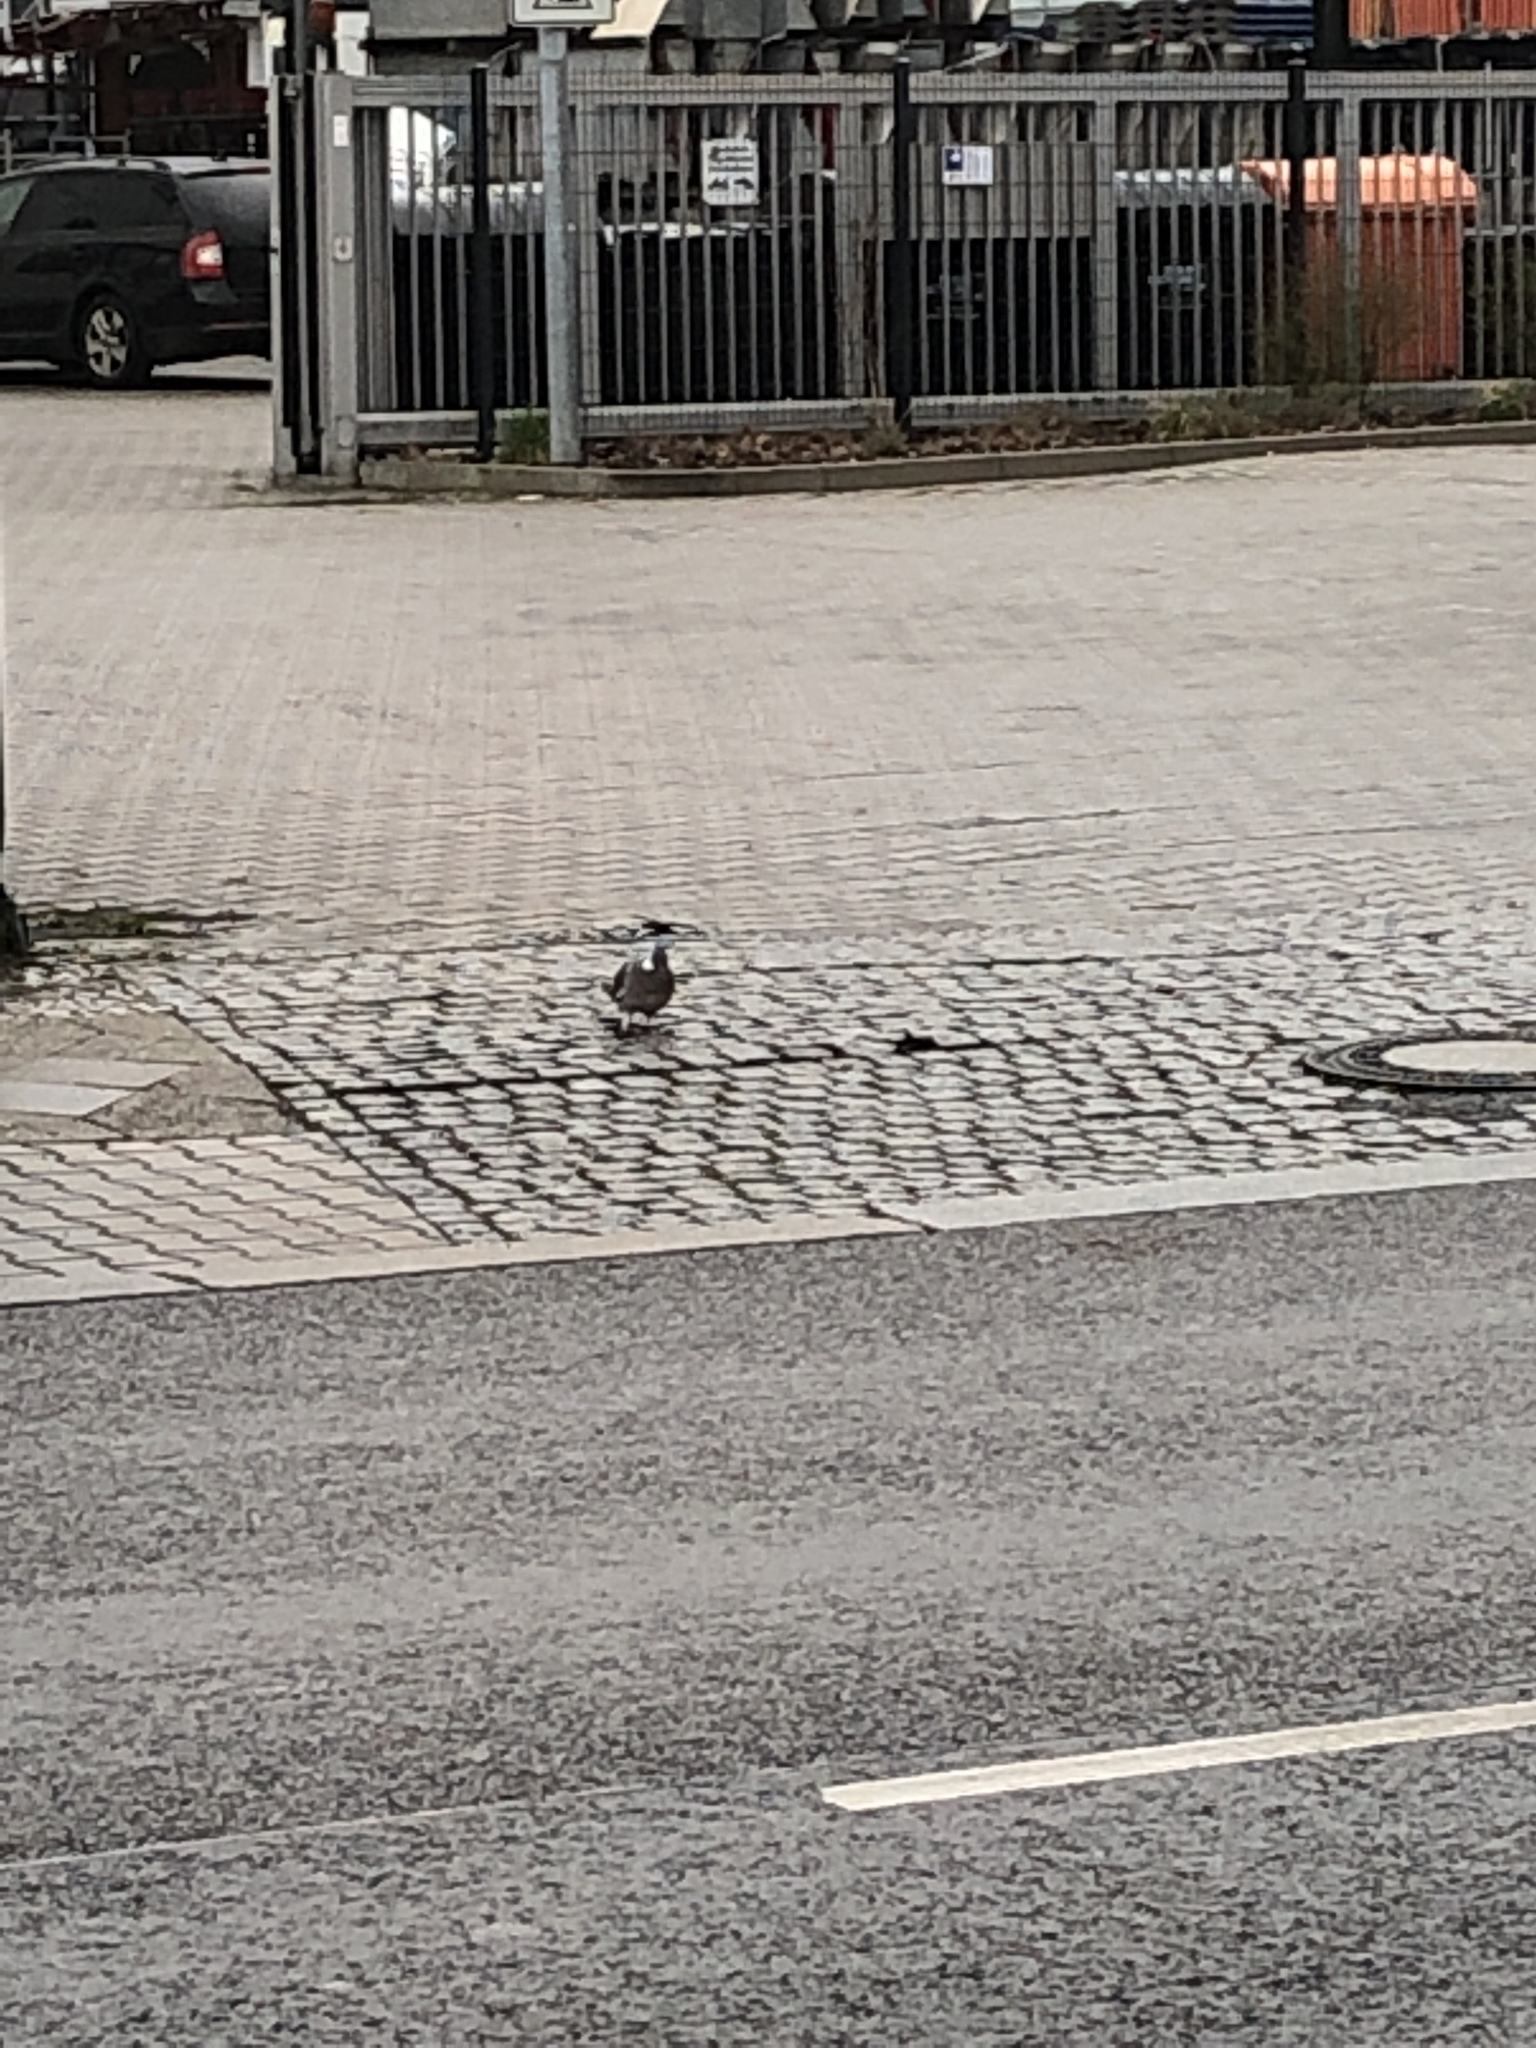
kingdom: Animalia
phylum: Chordata
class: Aves
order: Columbiformes
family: Columbidae
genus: Columba
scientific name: Columba palumbus
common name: Common wood pigeon
